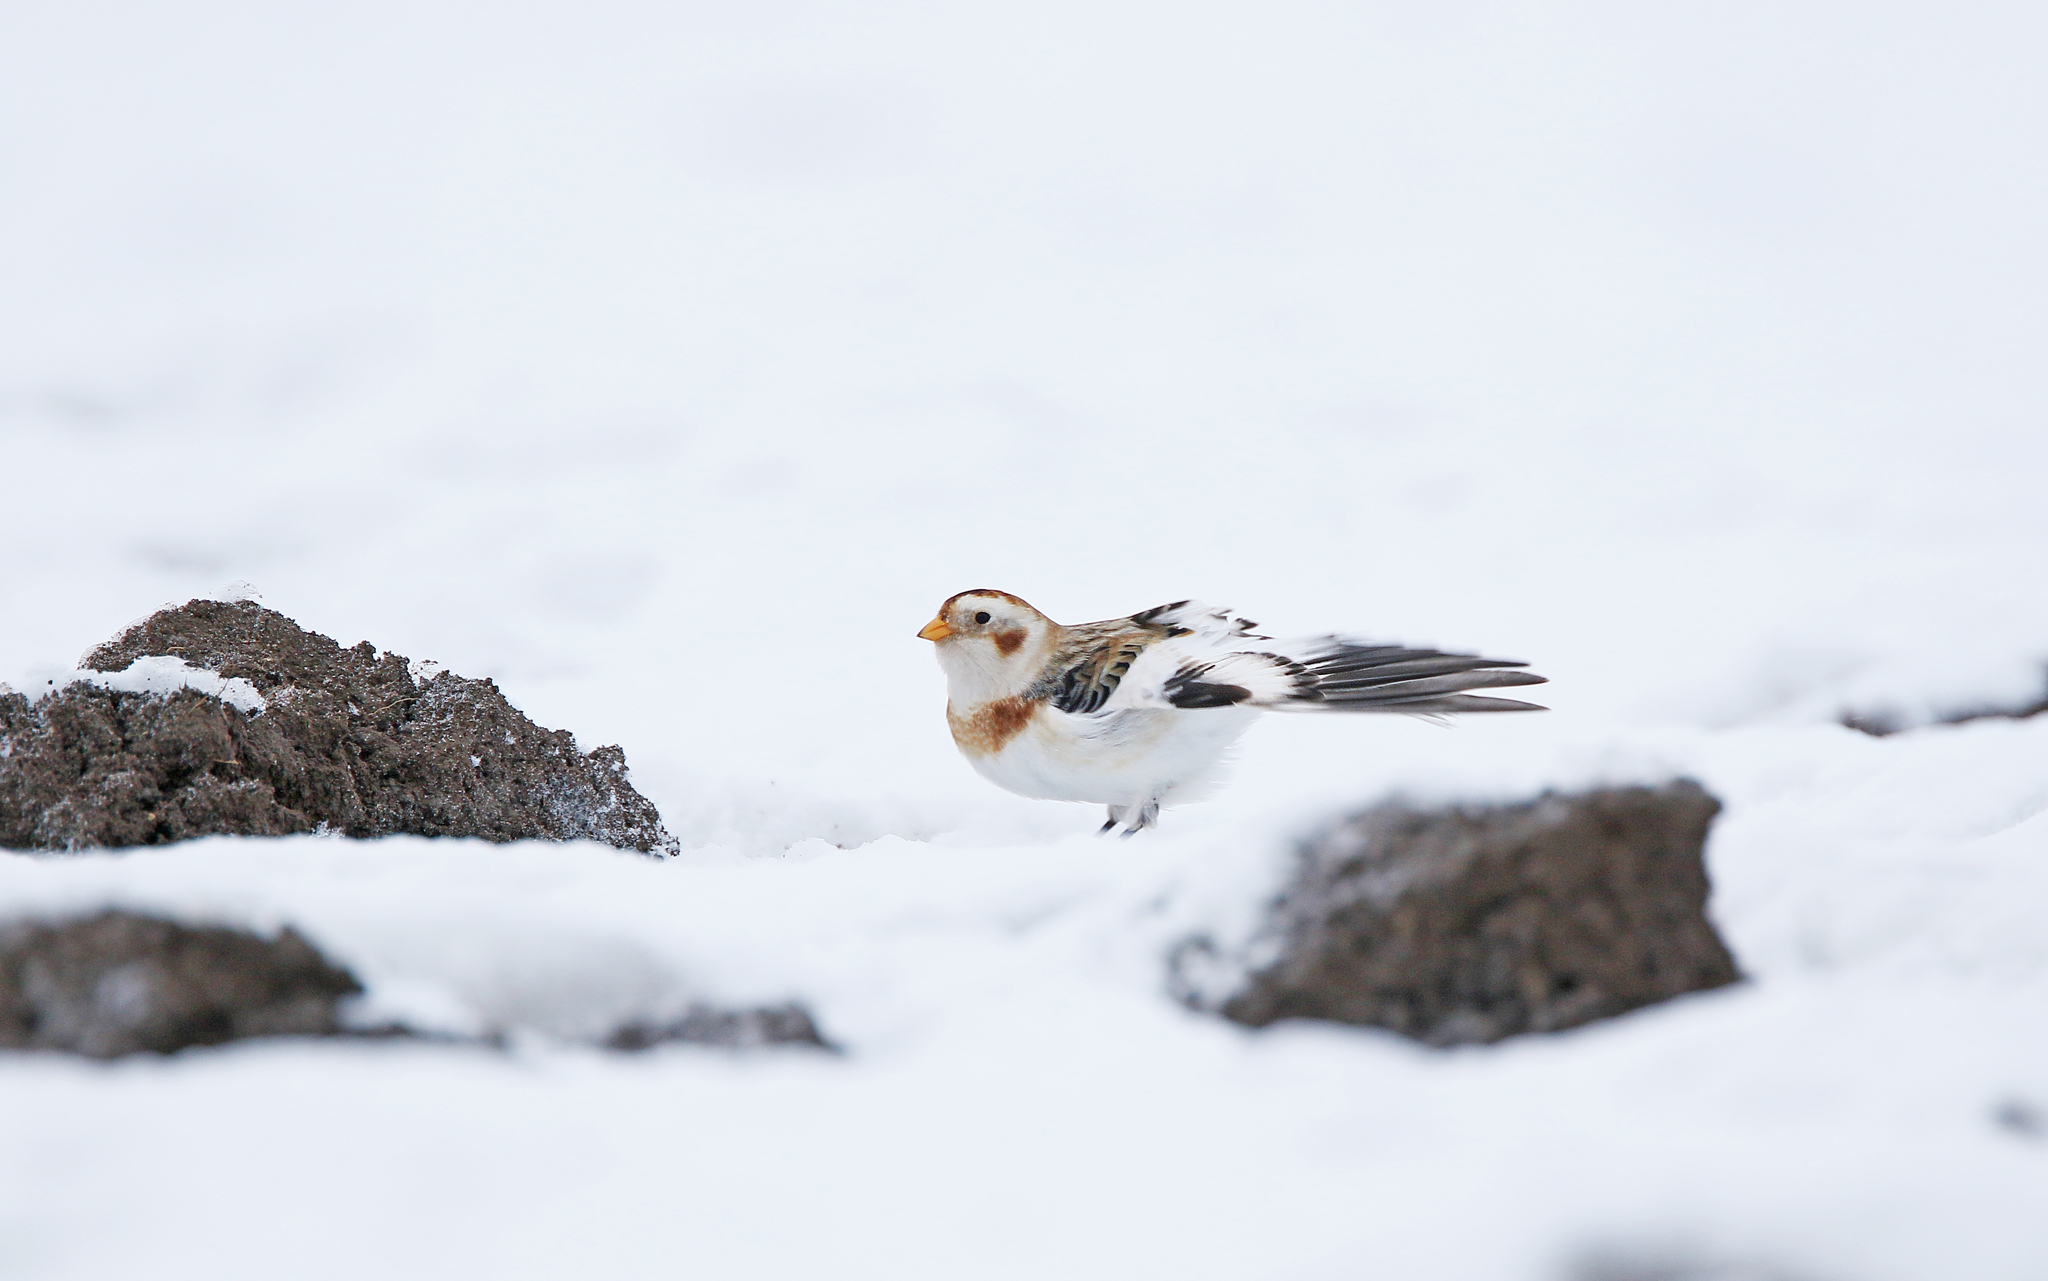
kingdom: Animalia
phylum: Chordata
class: Aves
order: Passeriformes
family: Calcariidae
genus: Plectrophenax
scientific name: Plectrophenax nivalis
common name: Snow bunting
